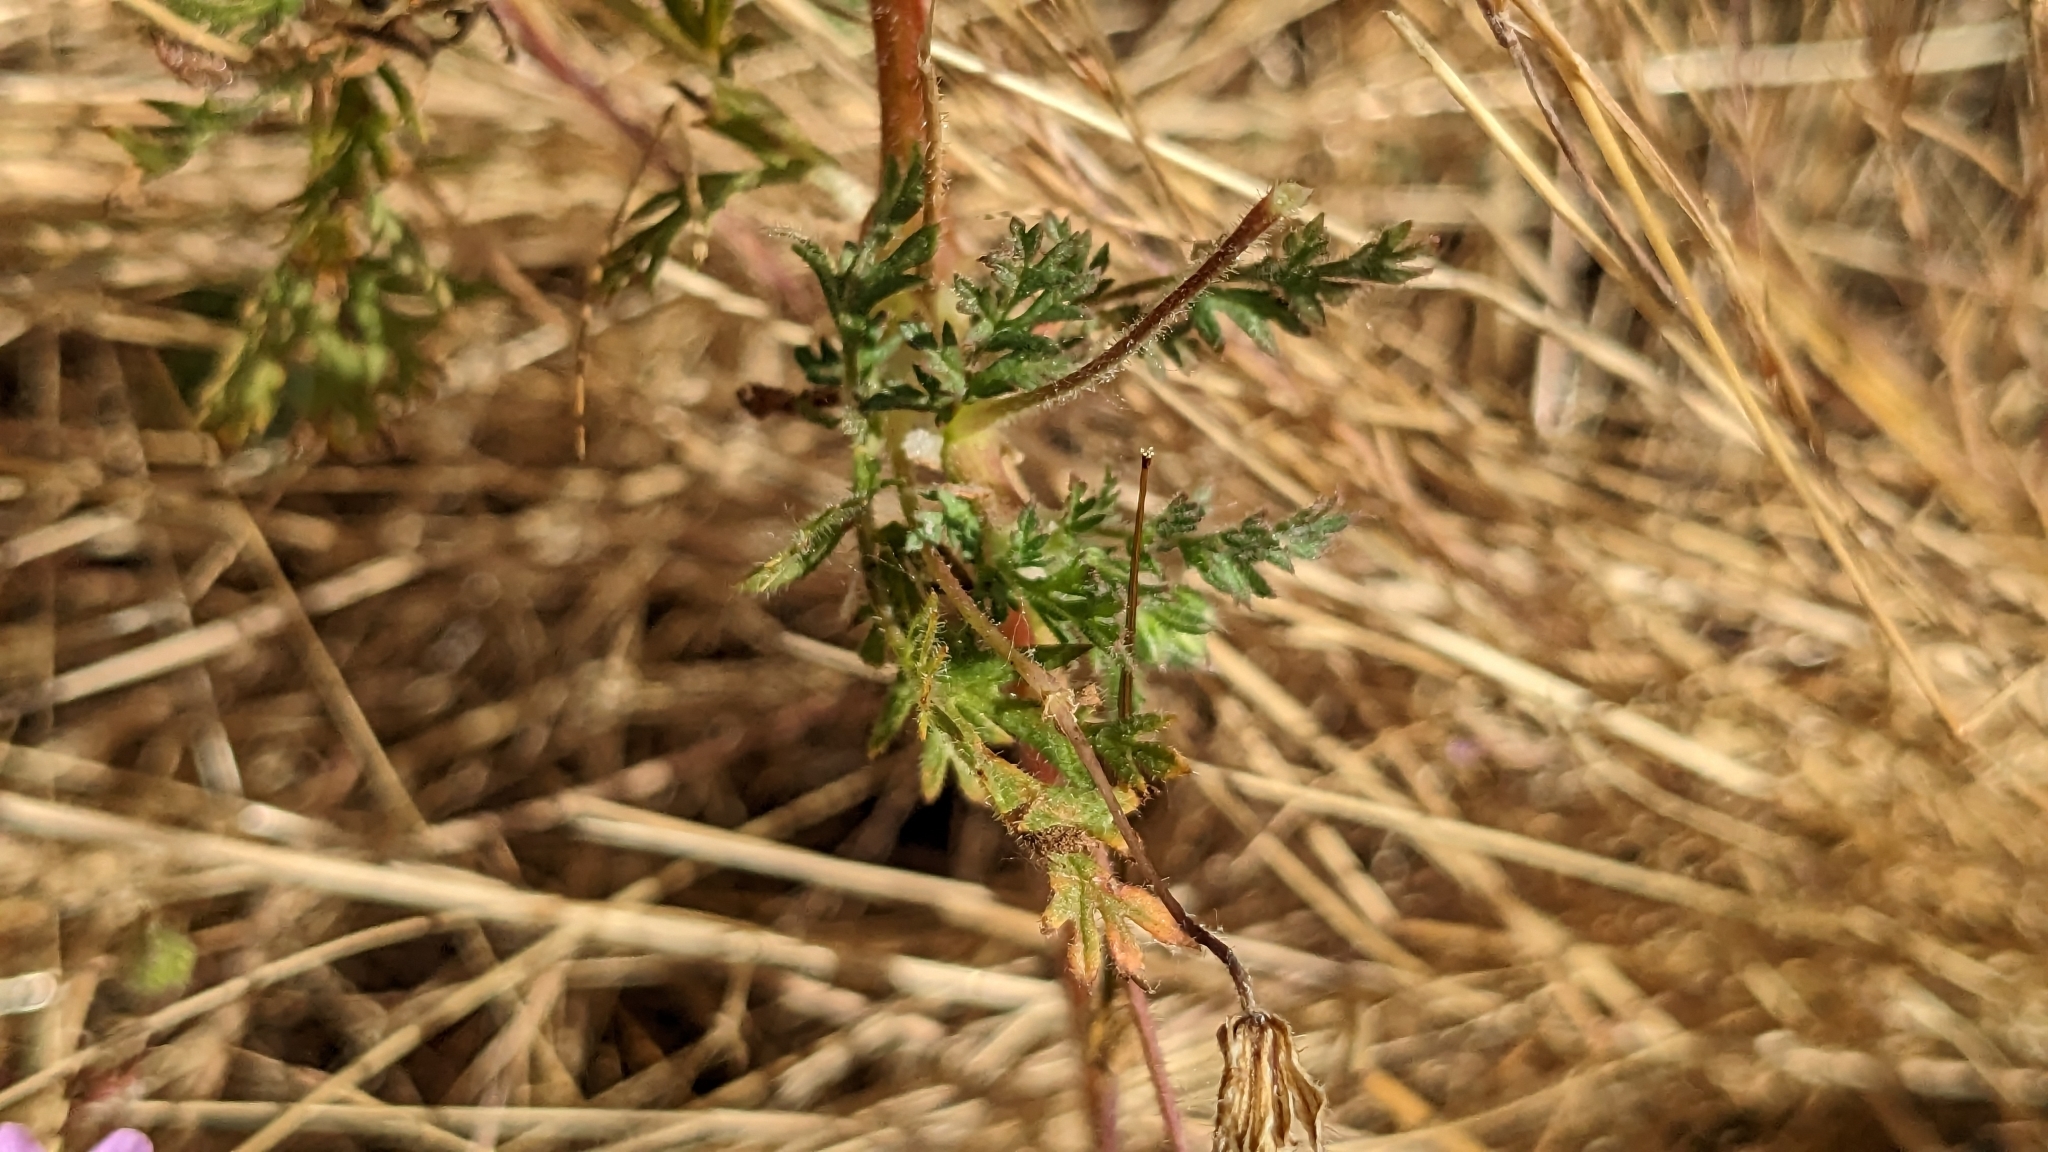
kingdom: Plantae
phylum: Tracheophyta
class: Magnoliopsida
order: Geraniales
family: Geraniaceae
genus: Erodium
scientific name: Erodium cicutarium
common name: Common stork's-bill
